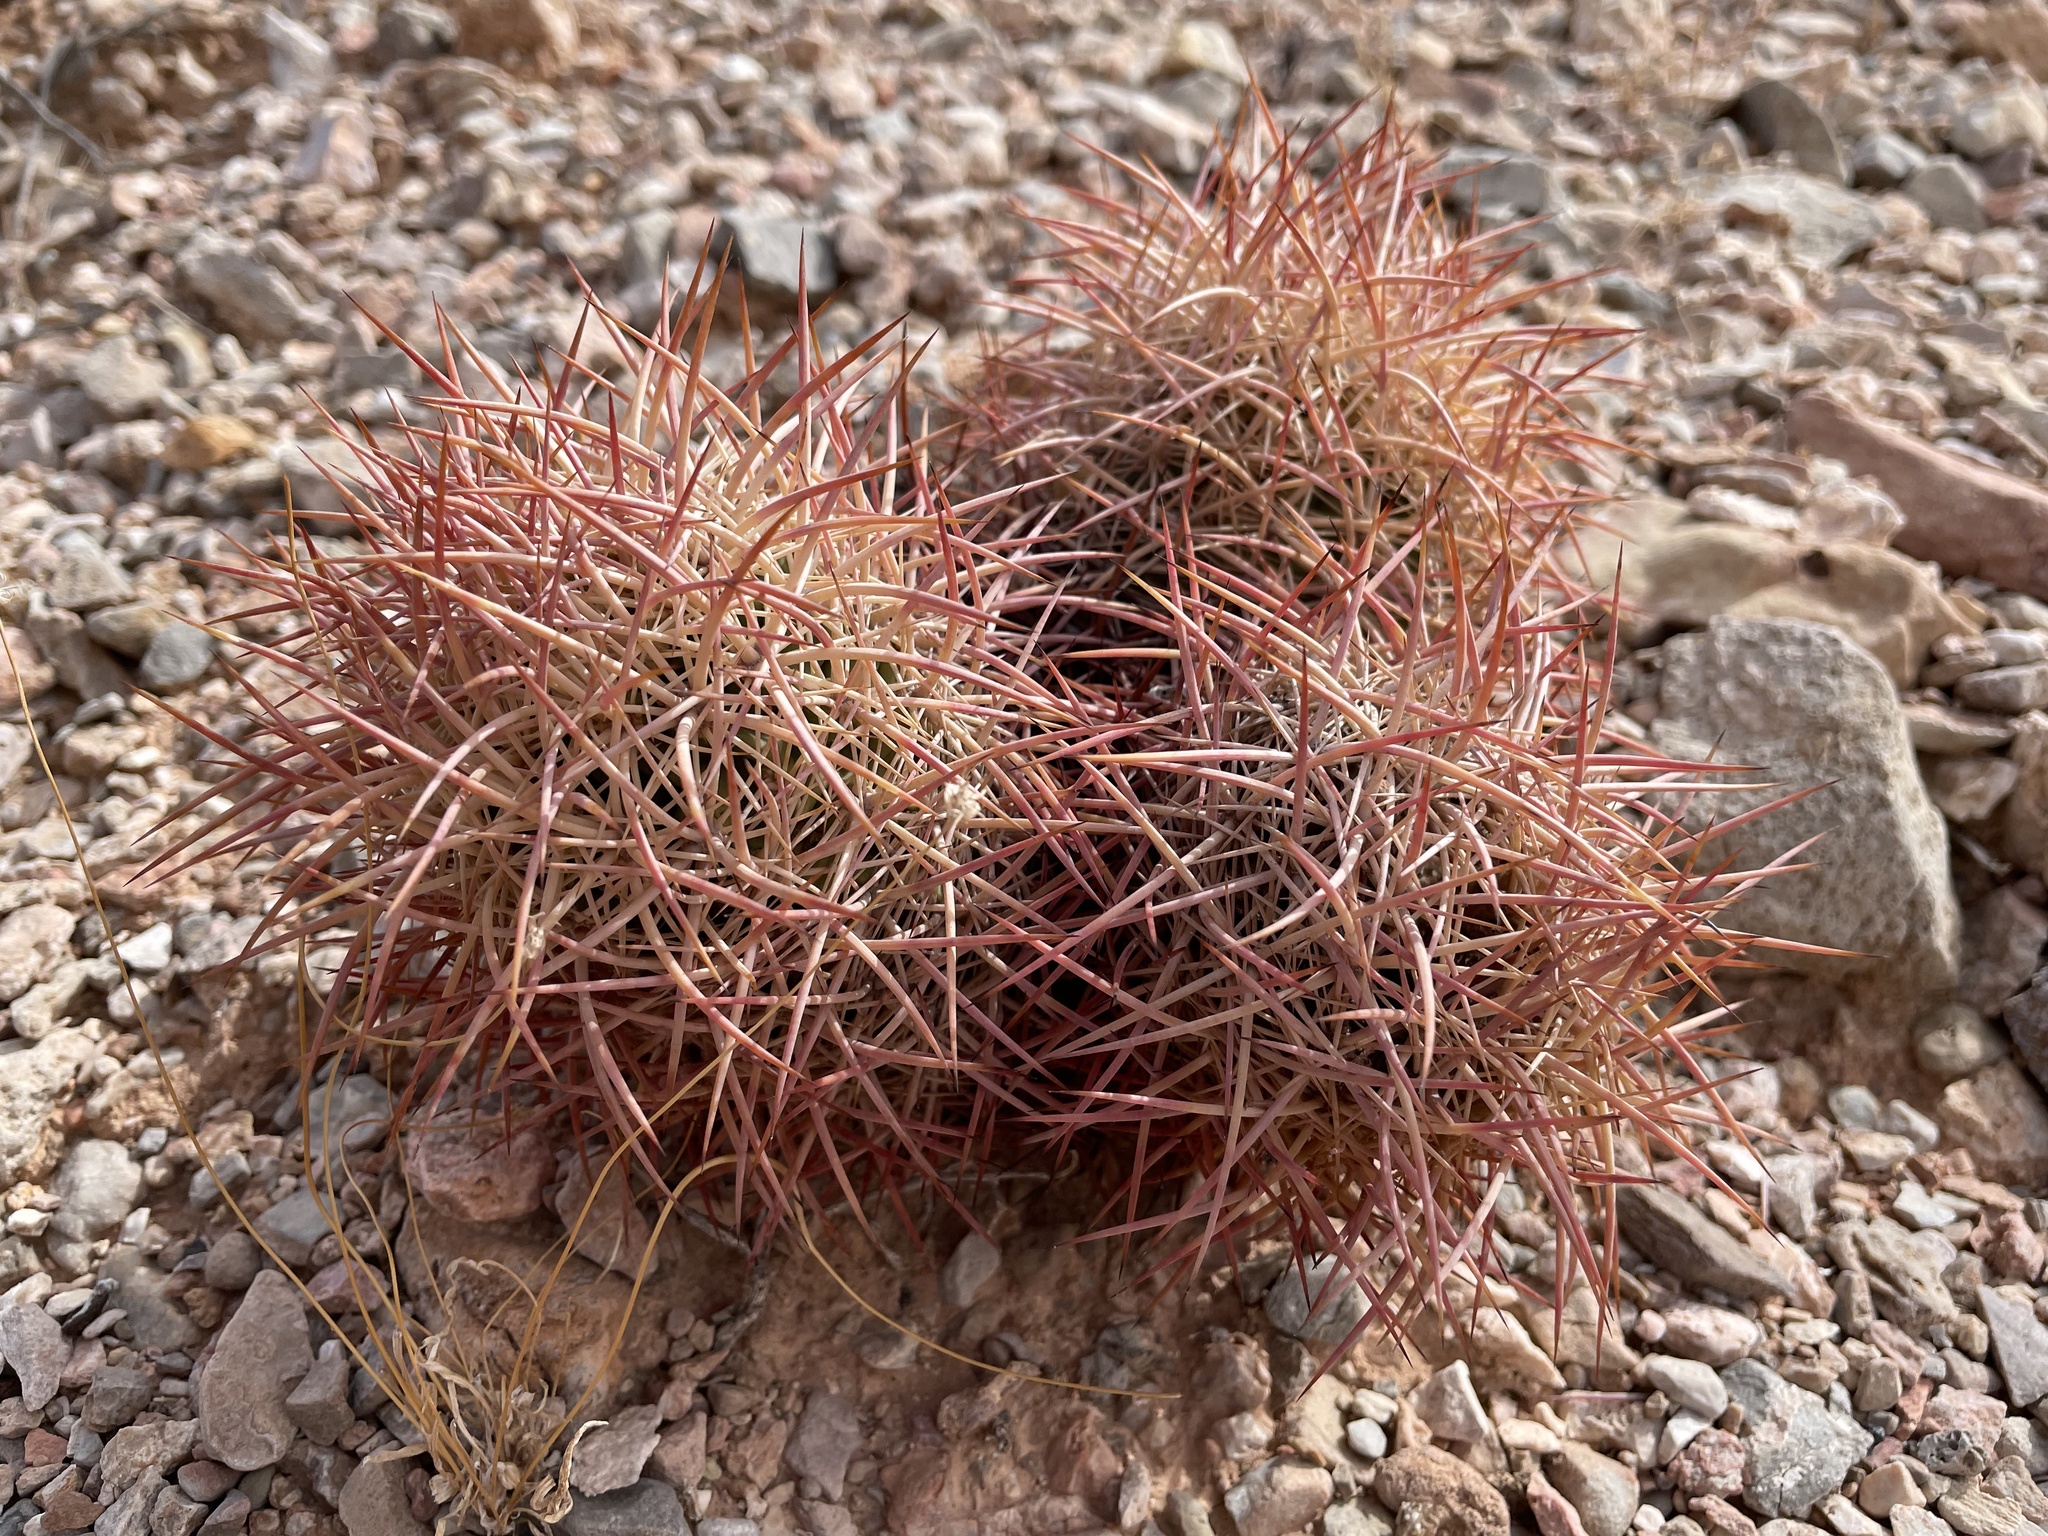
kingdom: Plantae
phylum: Tracheophyta
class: Magnoliopsida
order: Caryophyllales
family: Cactaceae
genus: Sclerocactus
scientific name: Sclerocactus johnsonii
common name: Eight-spine fishhook cactus
